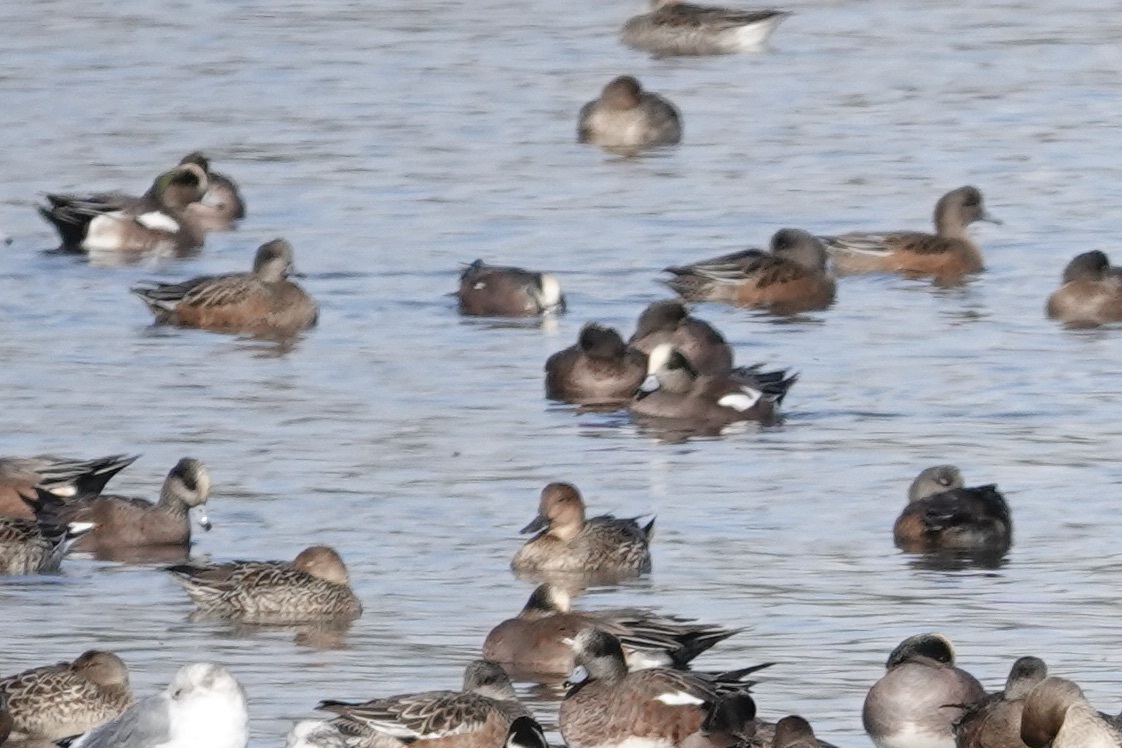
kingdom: Animalia
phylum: Chordata
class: Aves
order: Anseriformes
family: Anatidae
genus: Mareca
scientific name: Mareca americana
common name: American wigeon
